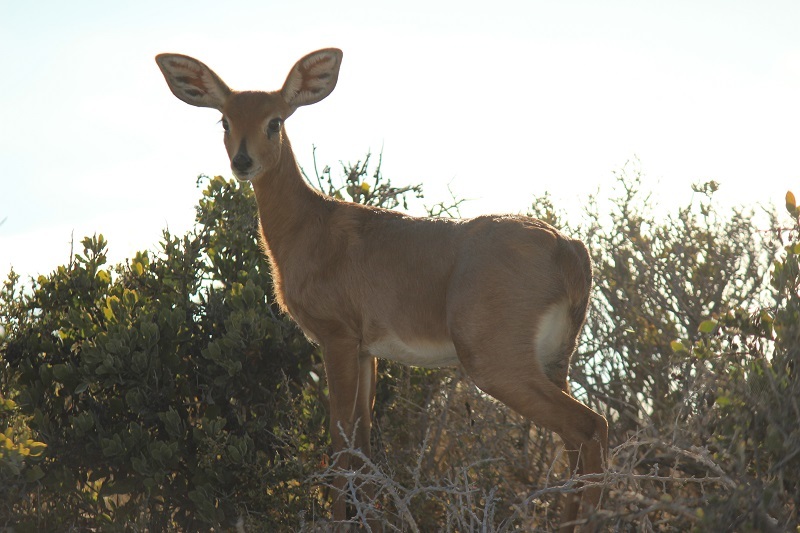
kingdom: Animalia
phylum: Chordata
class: Mammalia
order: Artiodactyla
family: Bovidae
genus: Raphicerus
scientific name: Raphicerus campestris
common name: Steenbok
